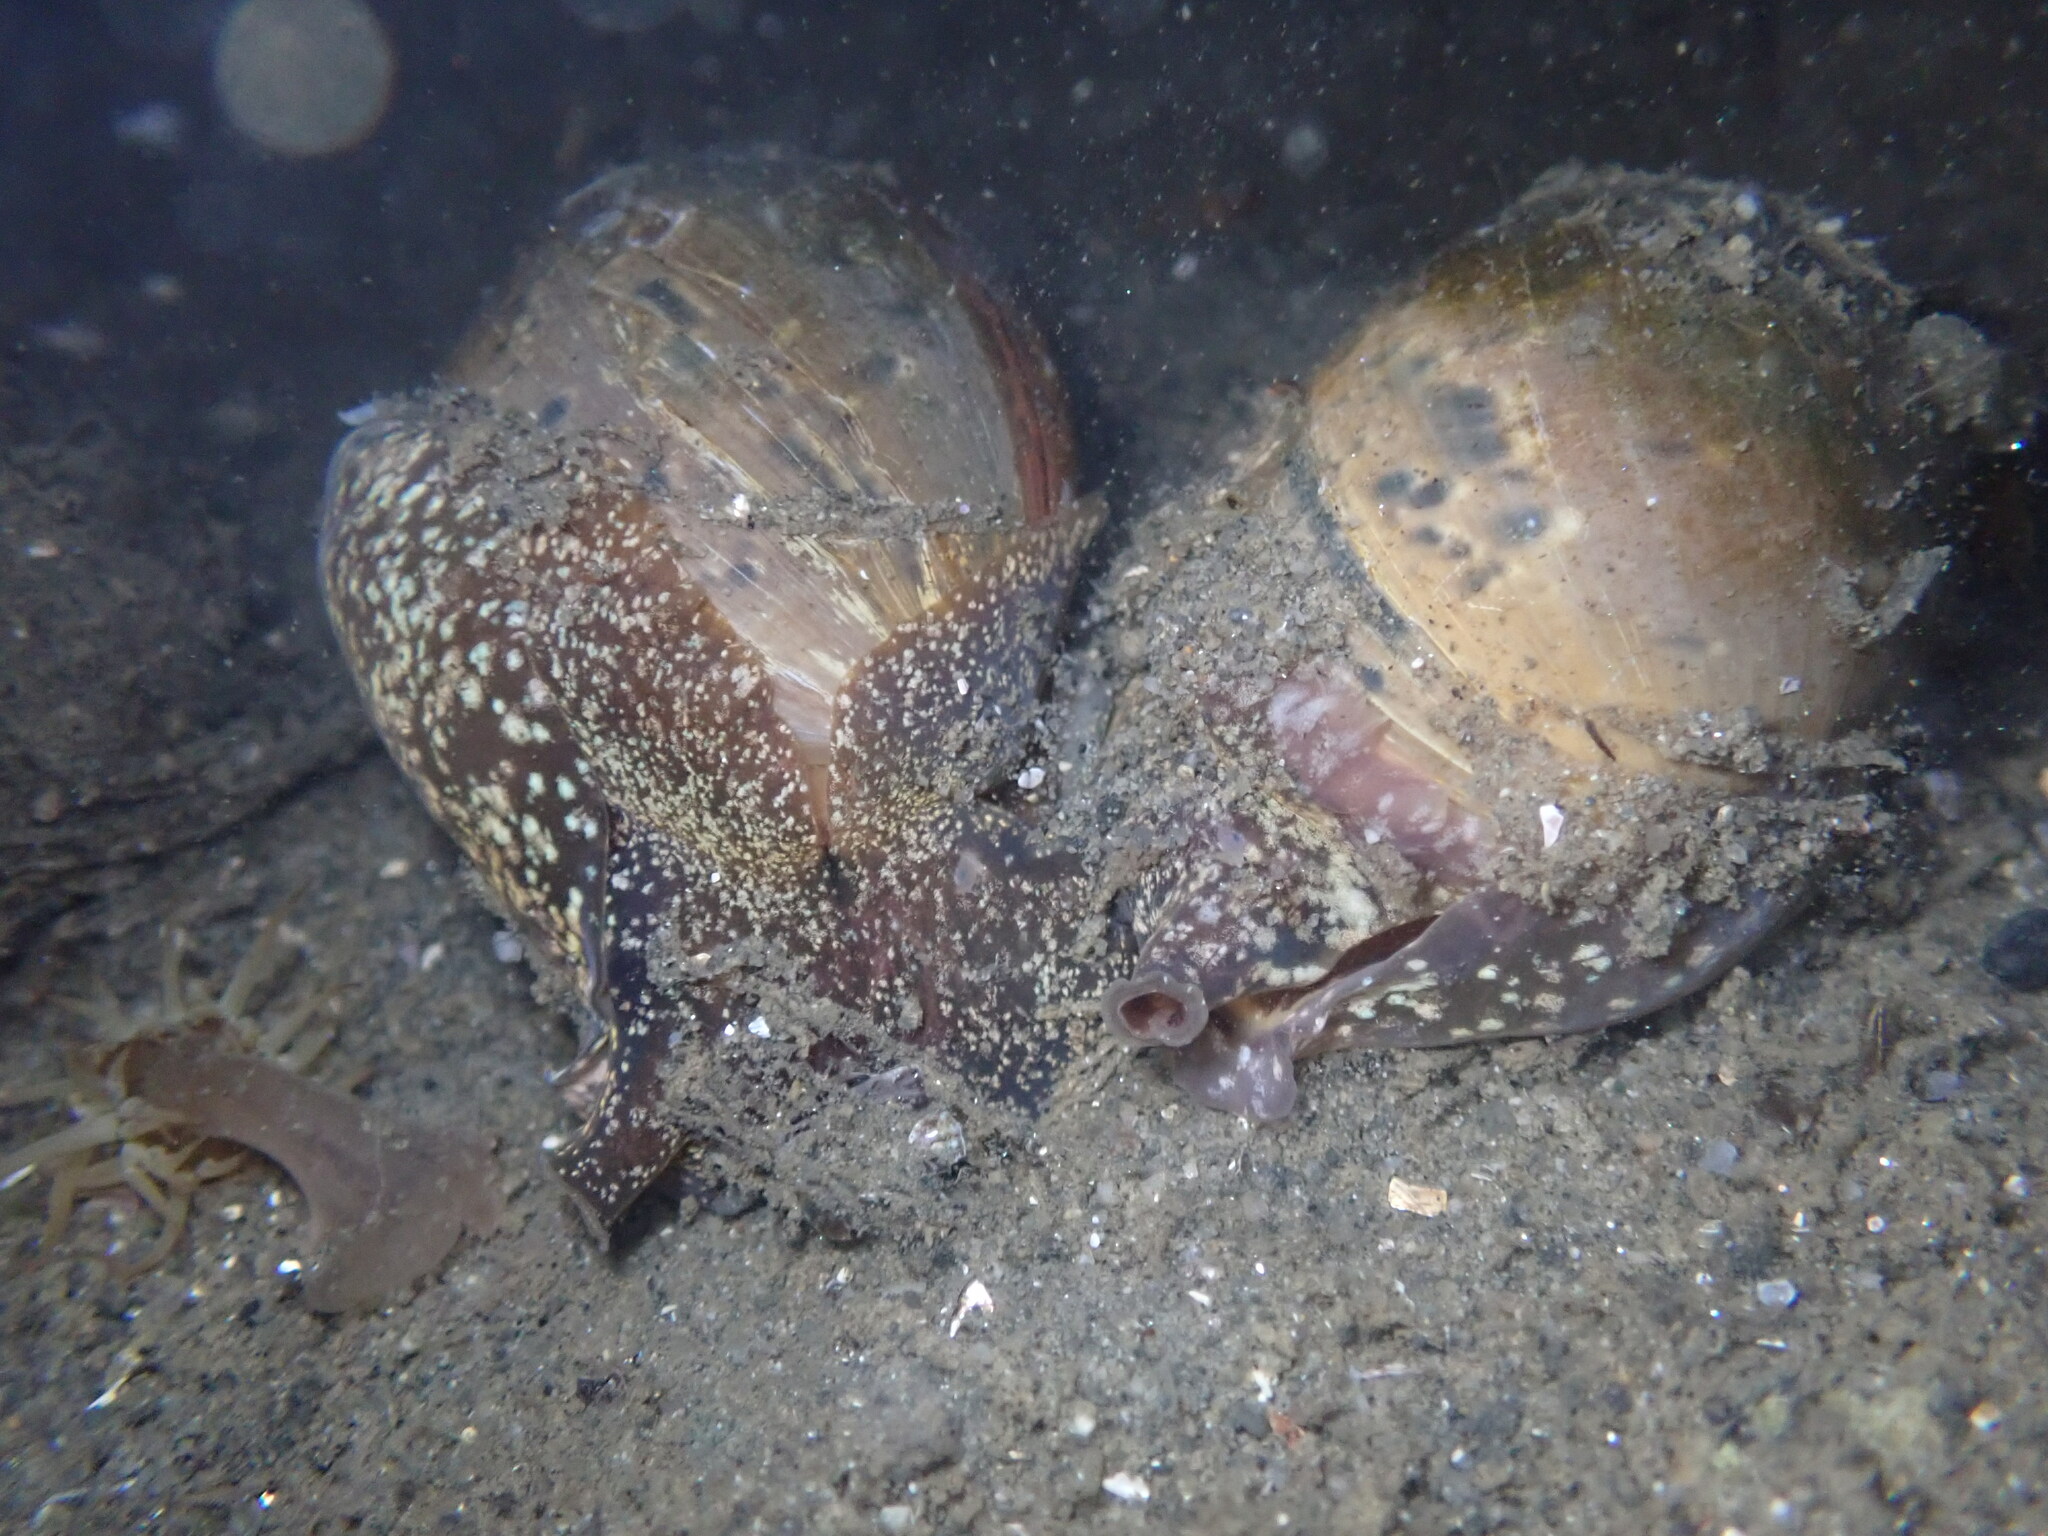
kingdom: Animalia
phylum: Mollusca
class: Gastropoda
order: Cephalaspidea
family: Bullidae
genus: Bulla
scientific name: Bulla gouldiana
